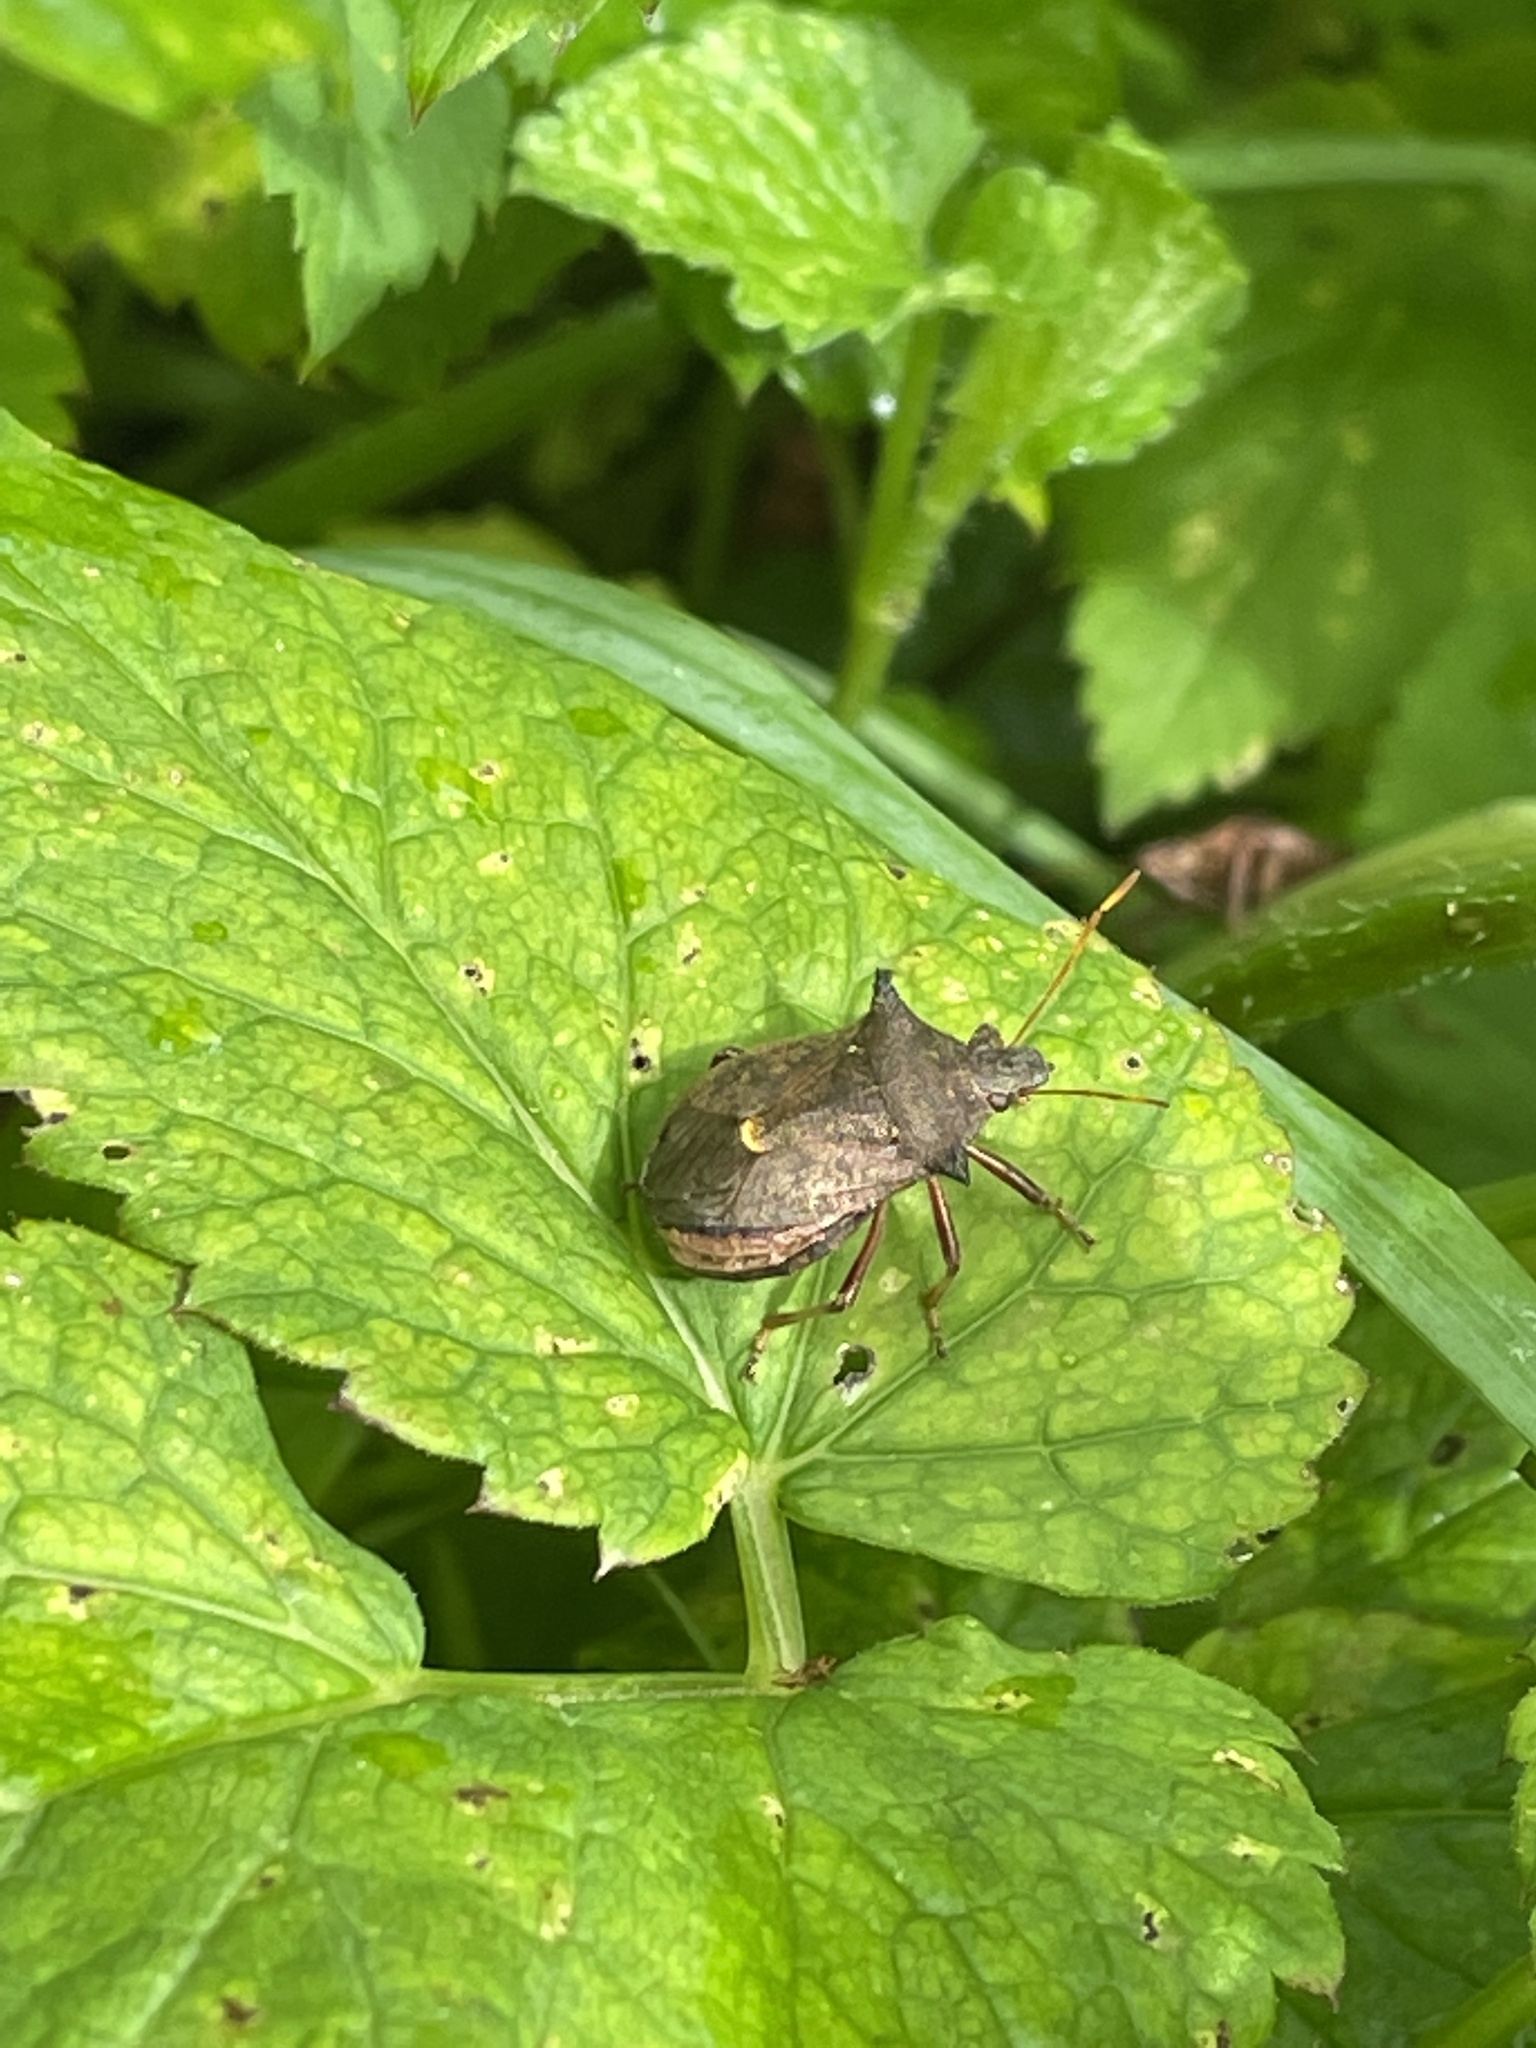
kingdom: Animalia
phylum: Arthropoda
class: Insecta
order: Hemiptera
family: Pentatomidae
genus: Picromerus
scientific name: Picromerus bidens
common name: Spiked shieldbug
